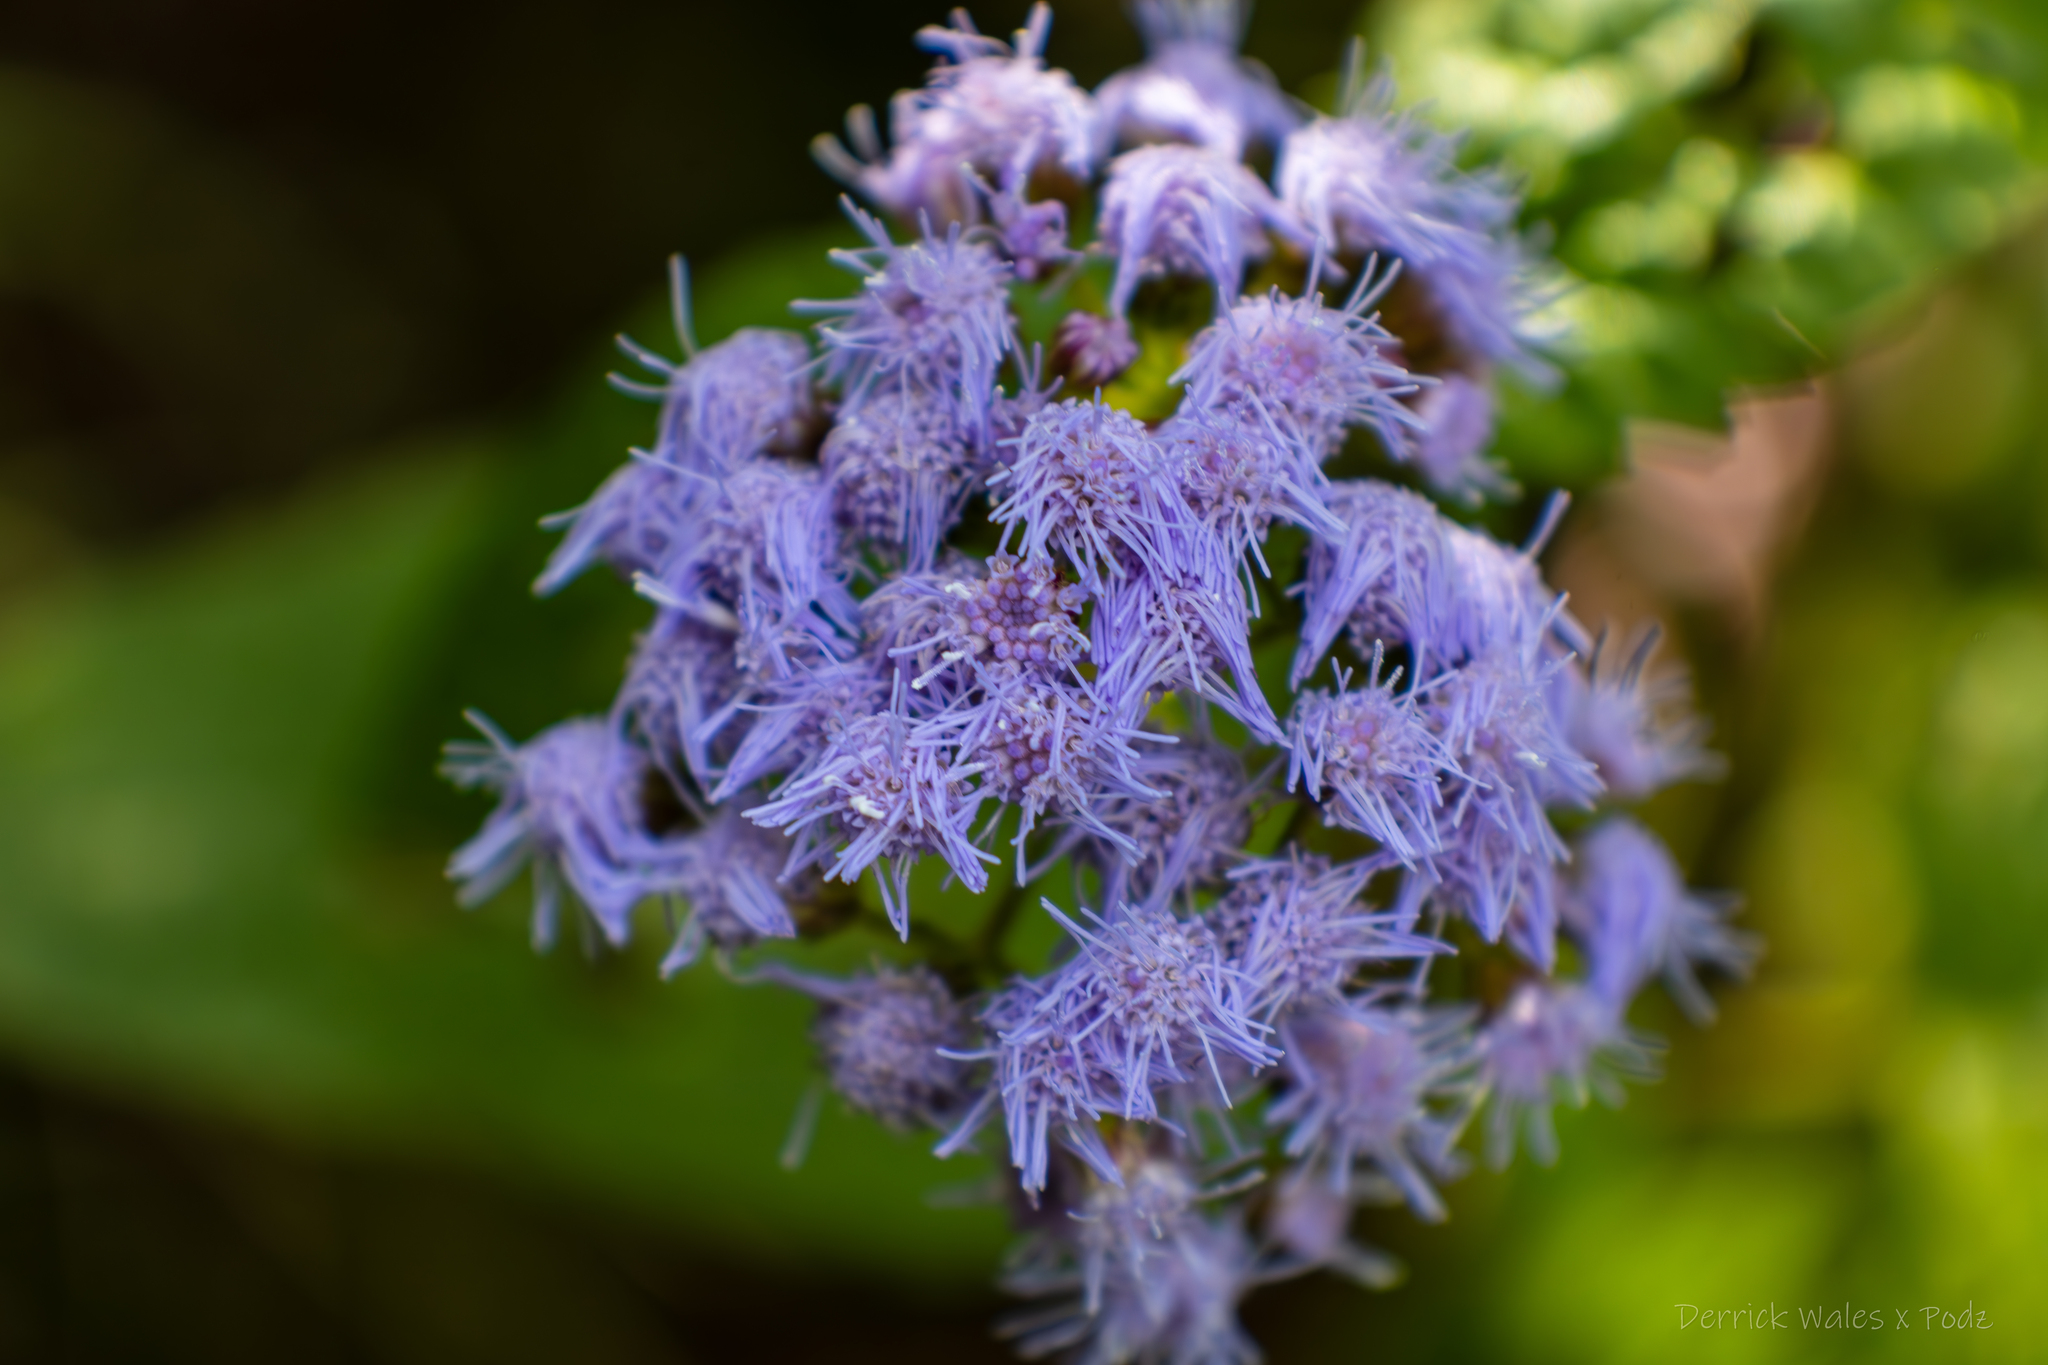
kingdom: Plantae
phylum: Tracheophyta
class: Magnoliopsida
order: Asterales
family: Asteraceae
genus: Conoclinium
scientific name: Conoclinium coelestinum
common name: Blue mistflower
